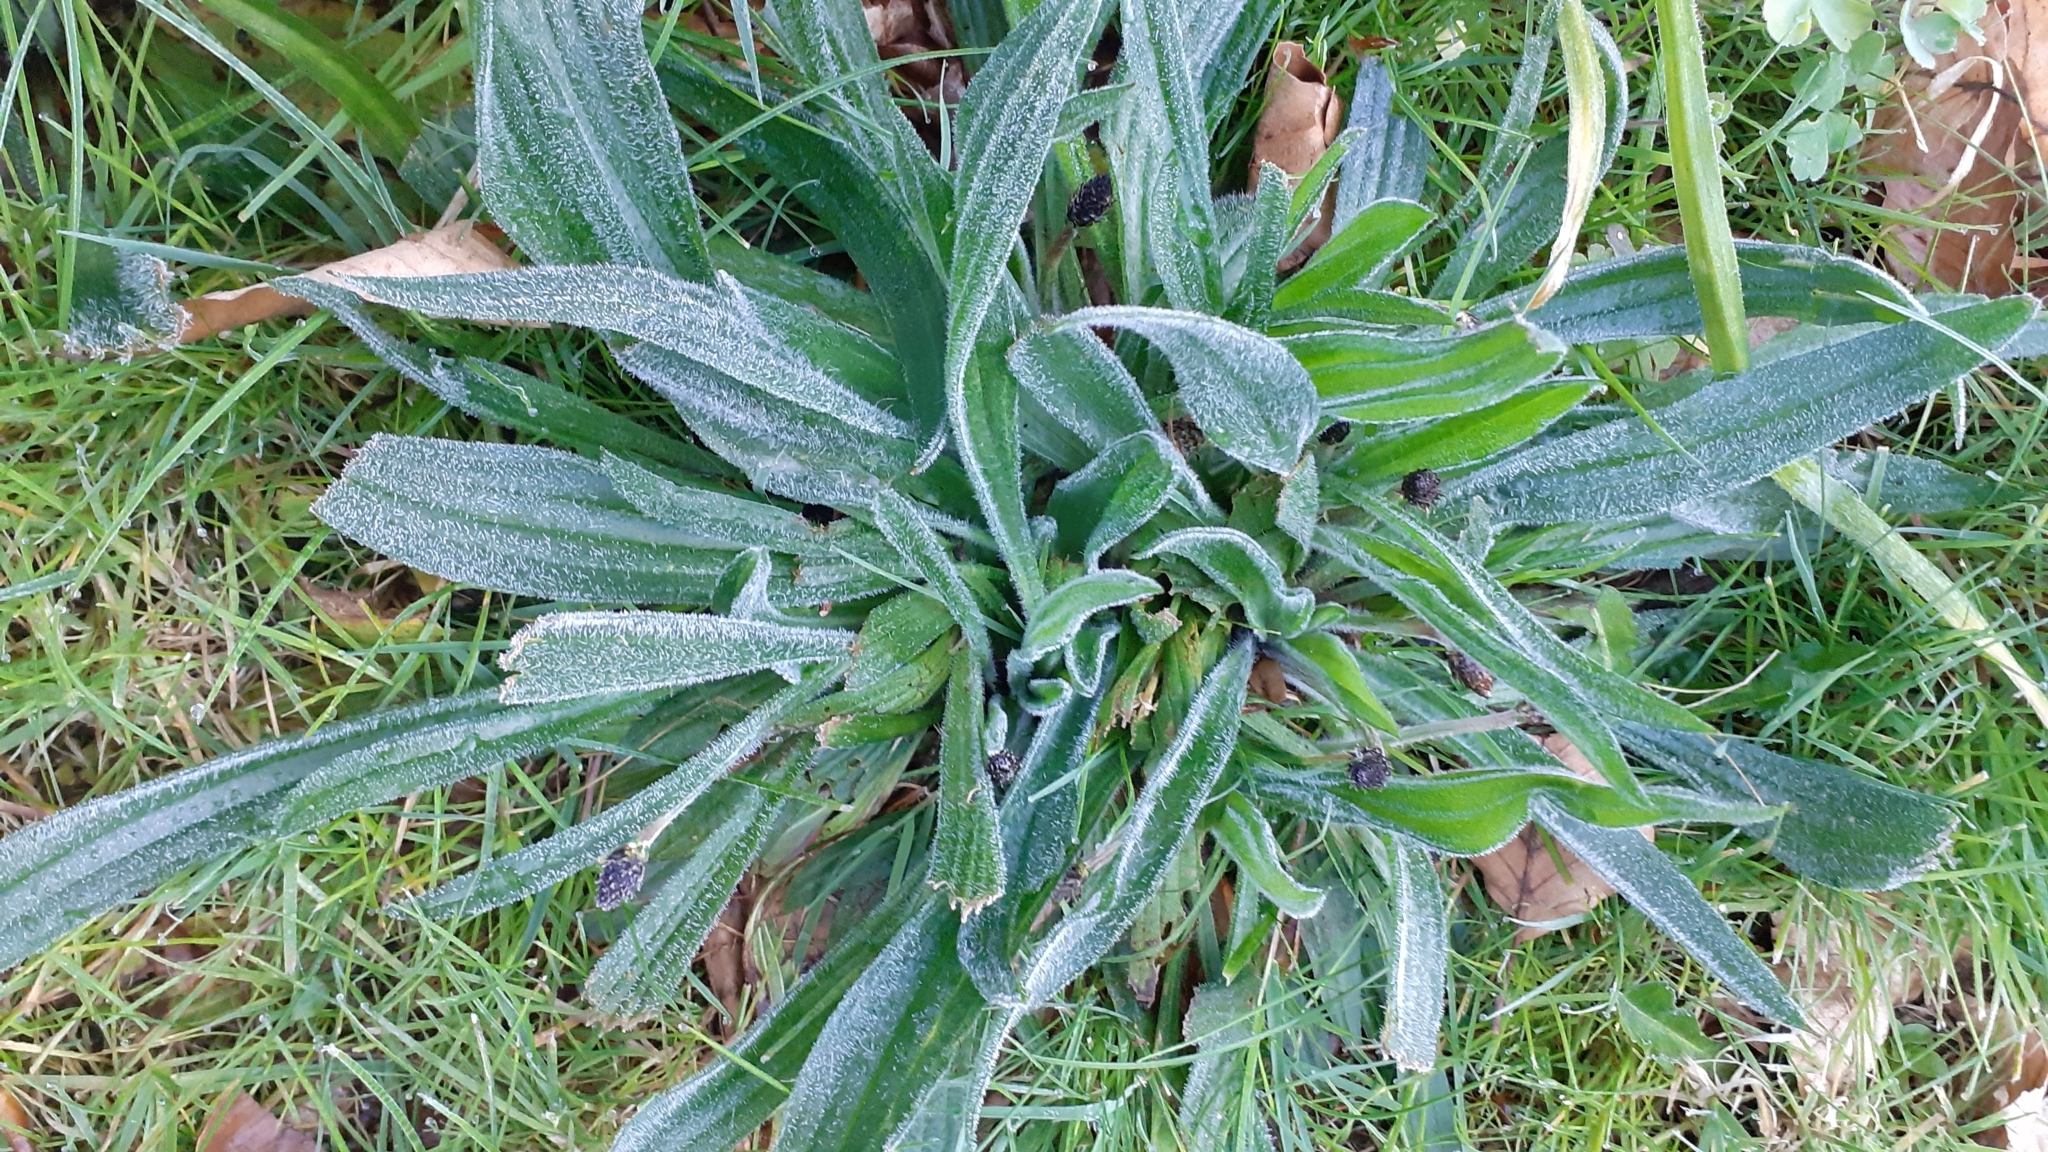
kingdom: Plantae
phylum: Tracheophyta
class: Magnoliopsida
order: Lamiales
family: Plantaginaceae
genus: Plantago
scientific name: Plantago lanceolata
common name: Ribwort plantain
